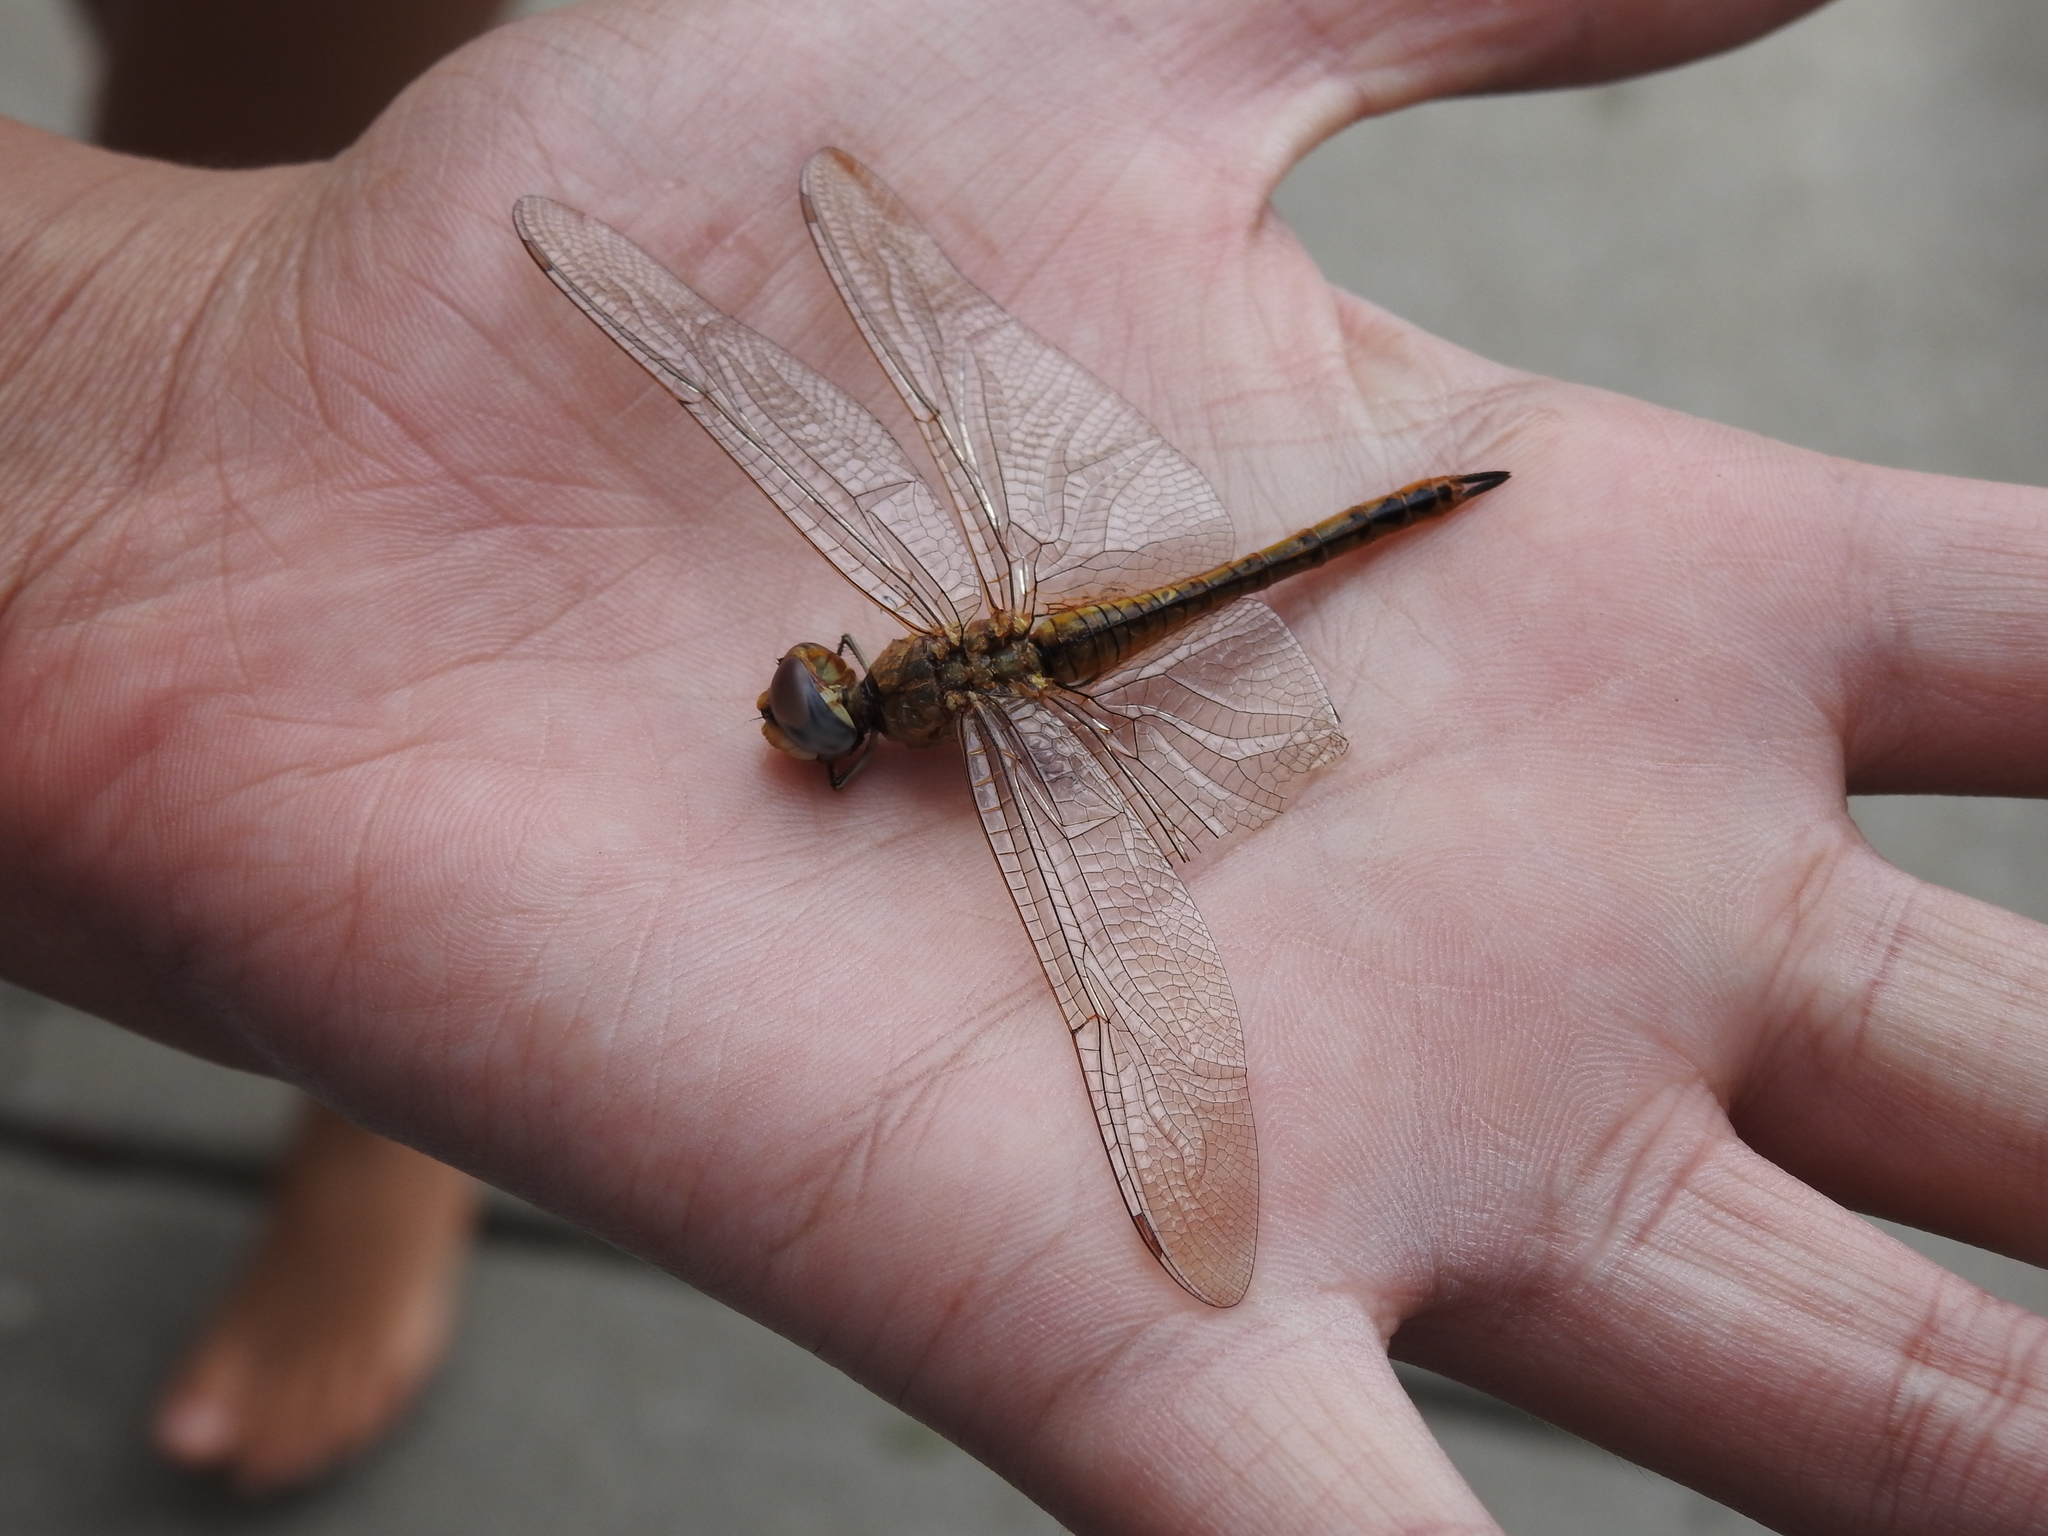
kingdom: Animalia
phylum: Arthropoda
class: Insecta
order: Odonata
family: Libellulidae
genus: Pantala
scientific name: Pantala flavescens
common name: Wandering glider
